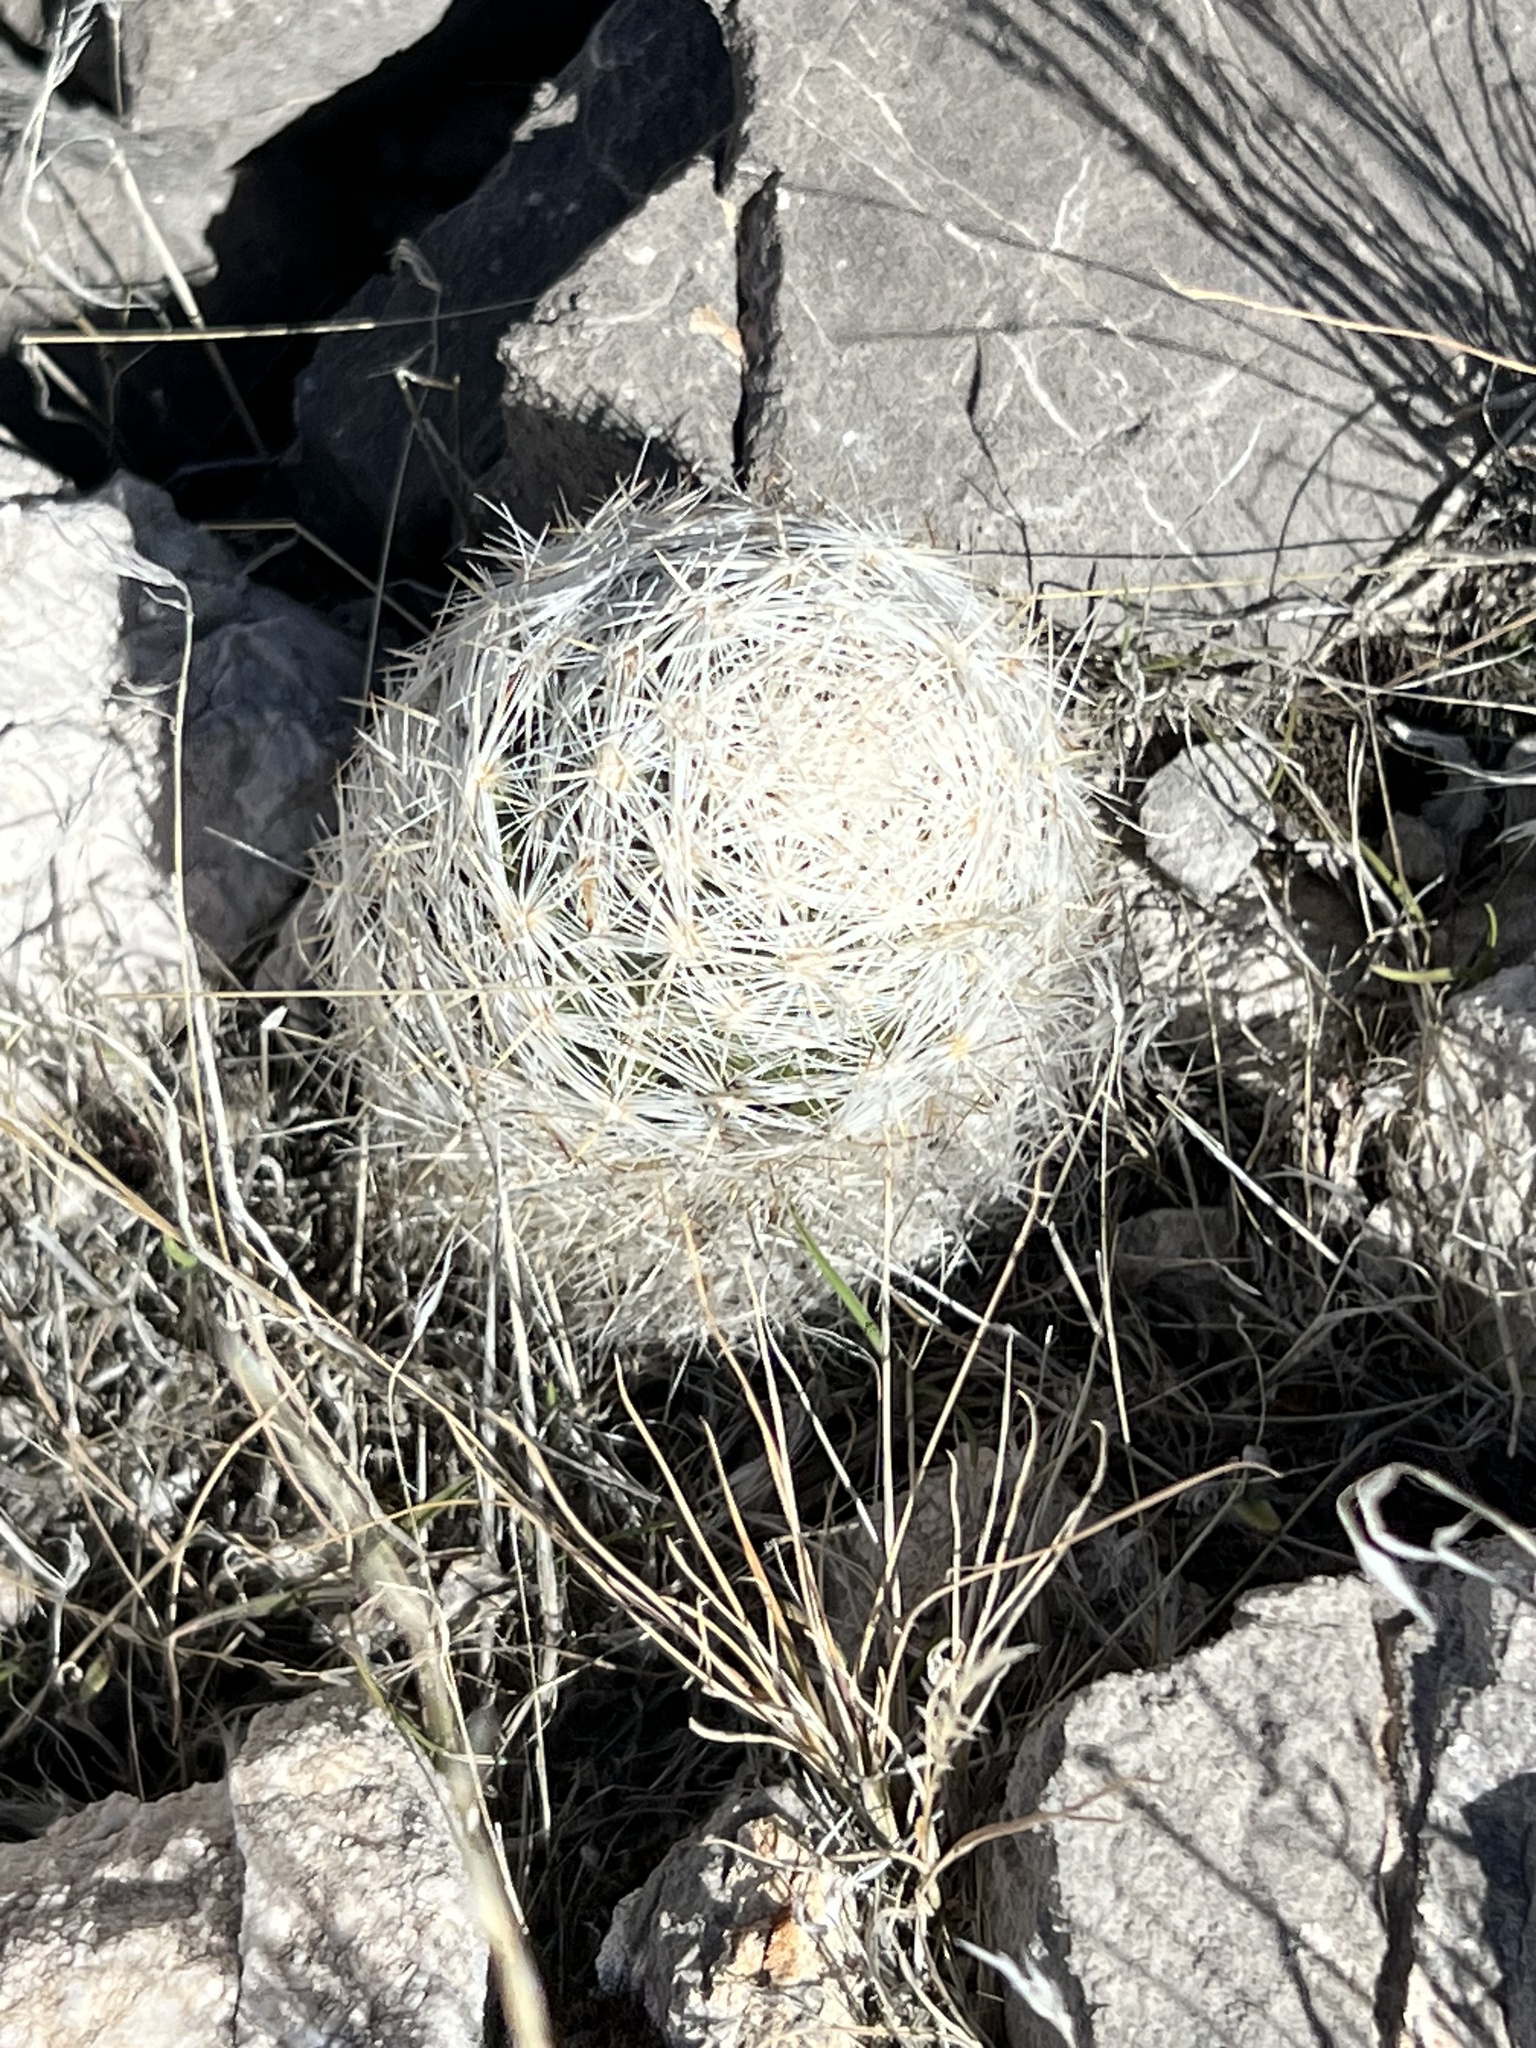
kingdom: Plantae
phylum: Tracheophyta
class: Magnoliopsida
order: Caryophyllales
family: Cactaceae
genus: Pelecyphora
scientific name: Pelecyphora dasyacantha
